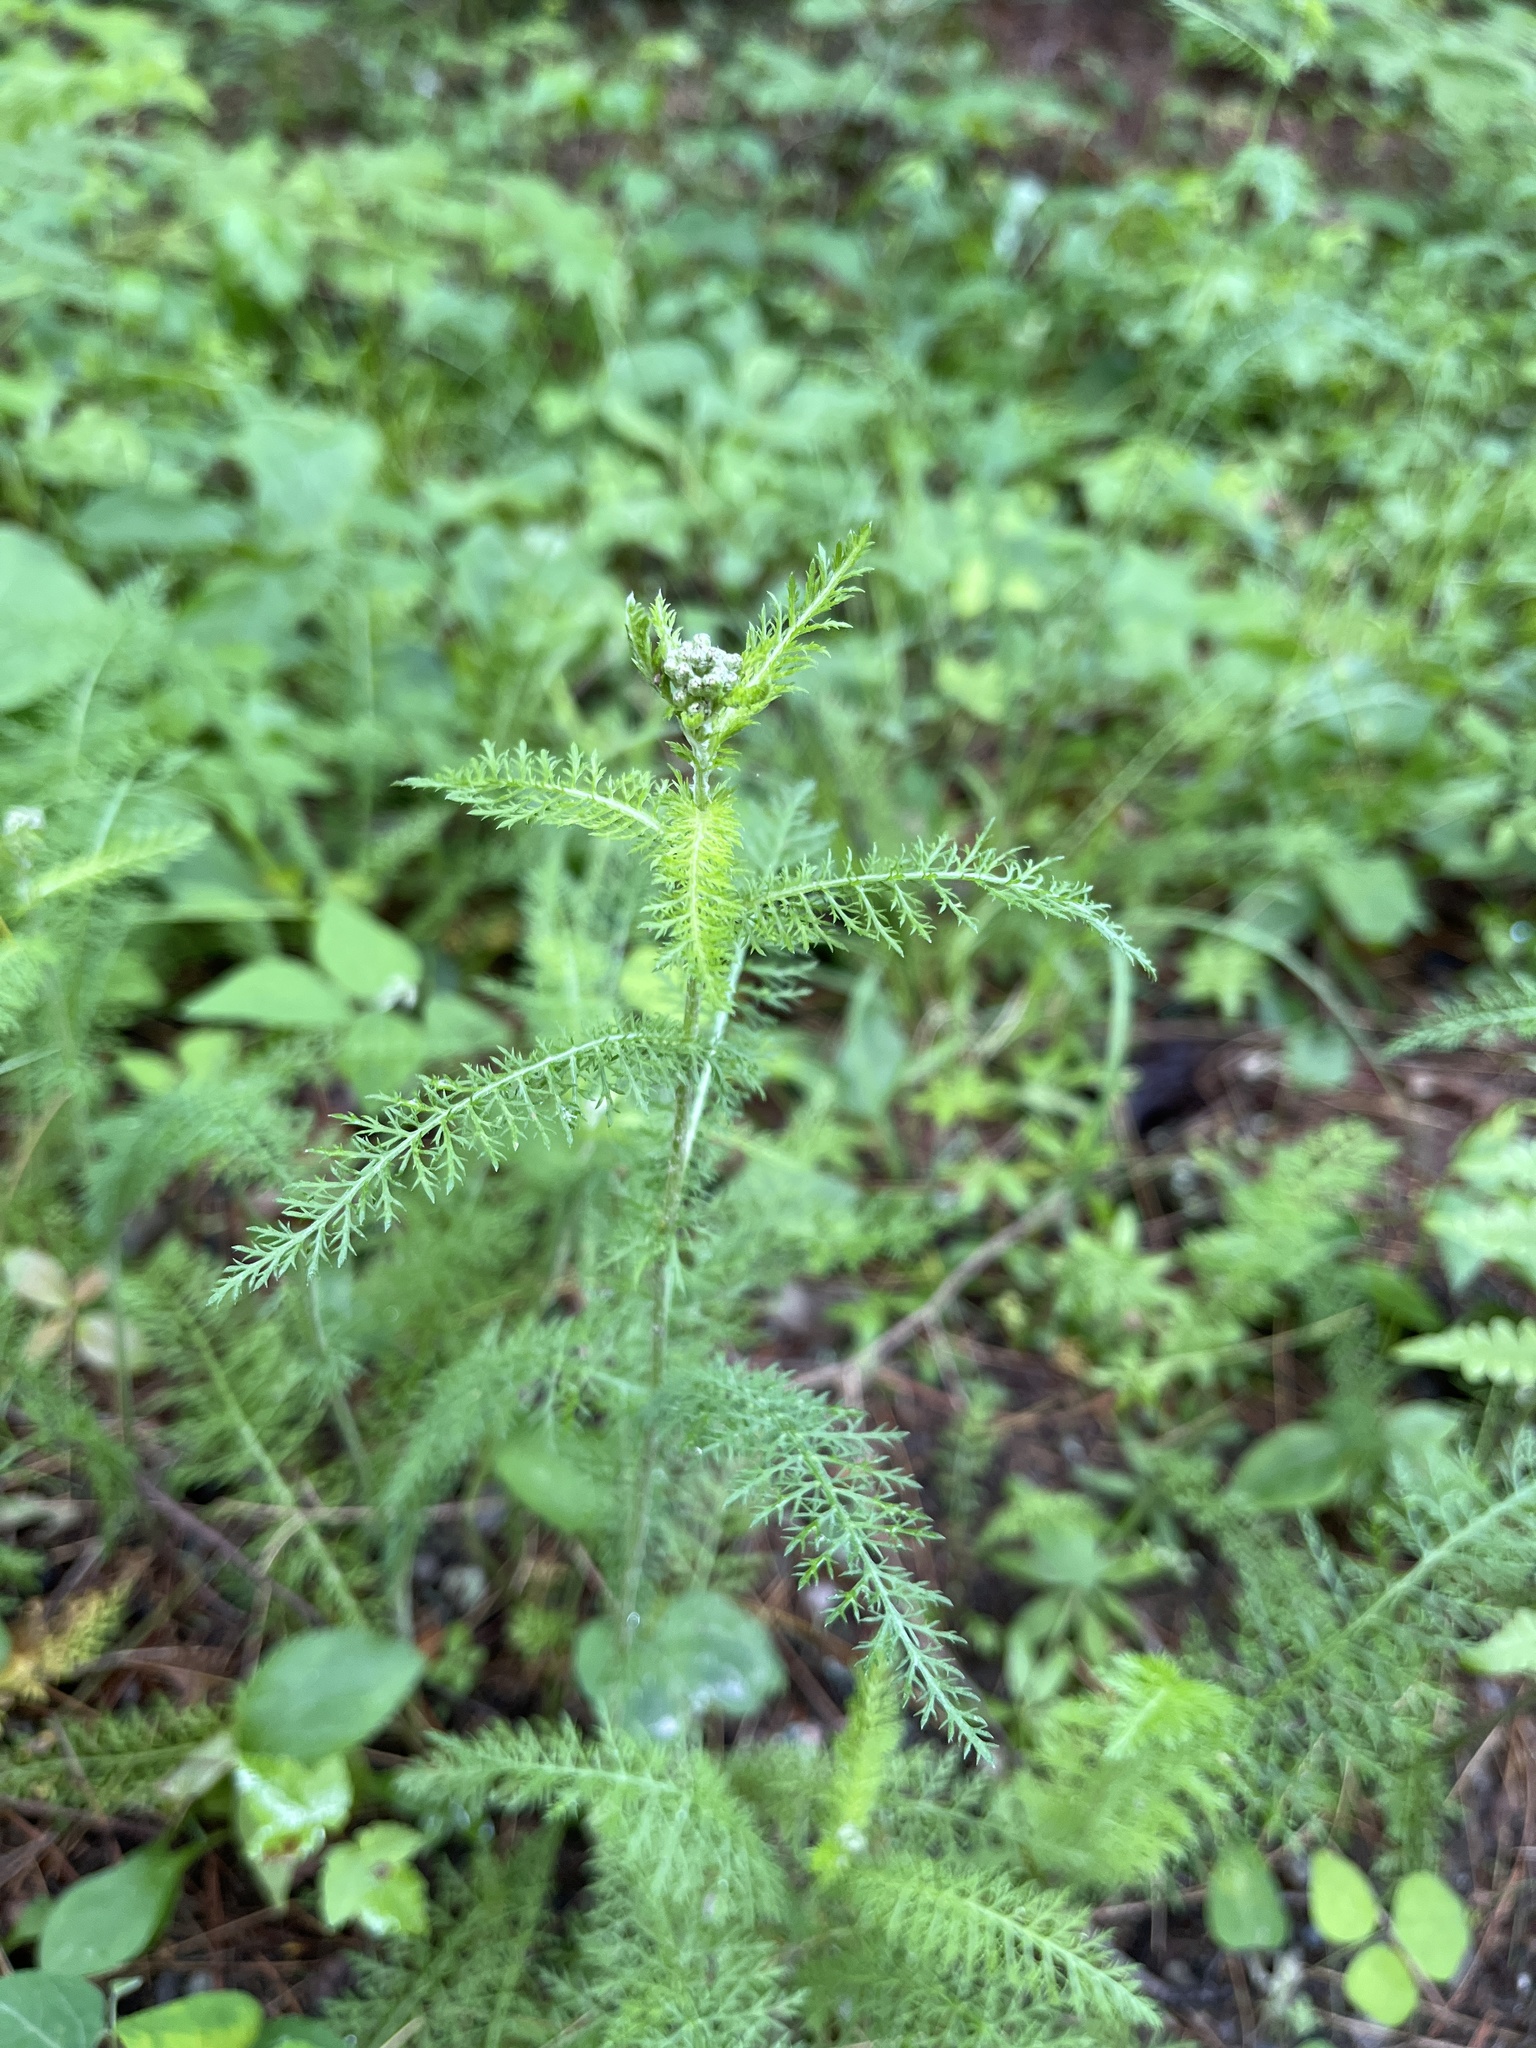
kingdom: Plantae
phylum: Tracheophyta
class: Magnoliopsida
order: Asterales
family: Asteraceae
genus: Achillea
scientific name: Achillea millefolium
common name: Yarrow
